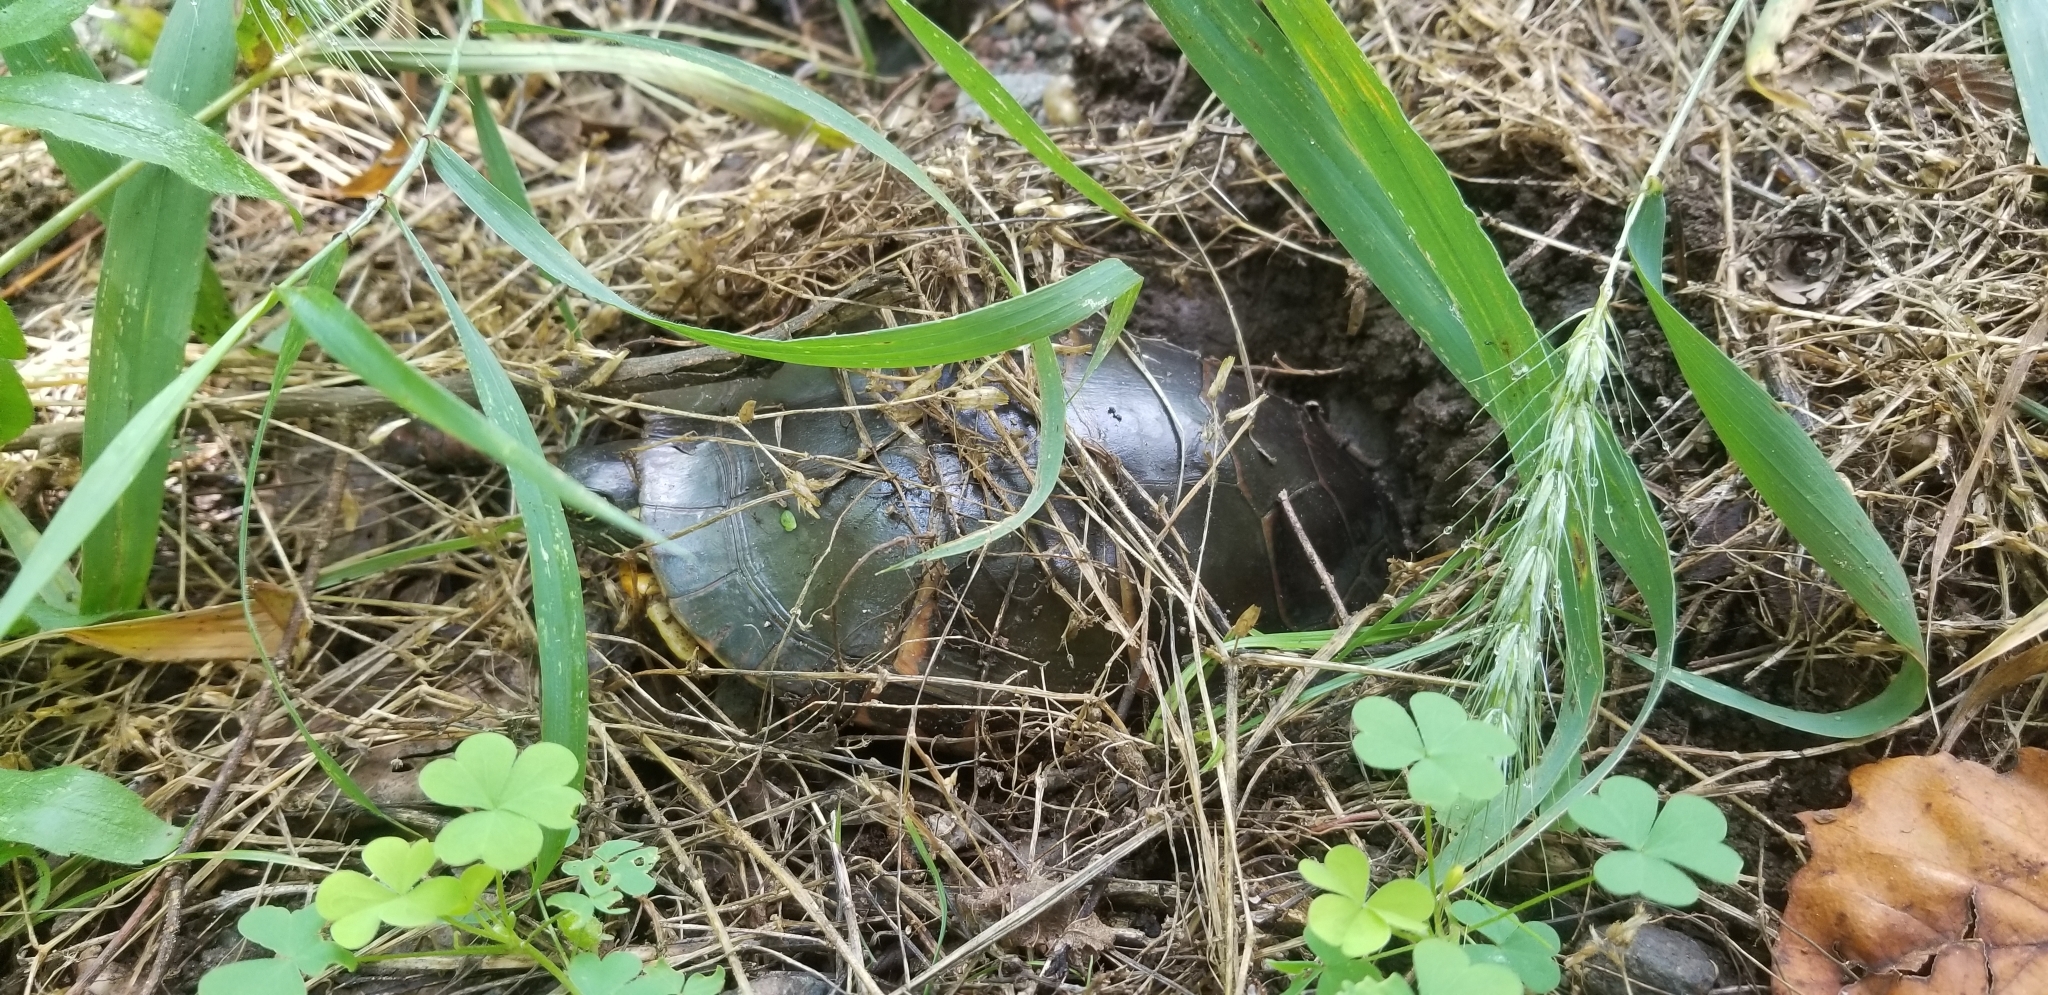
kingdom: Animalia
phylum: Chordata
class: Testudines
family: Emydidae
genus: Chrysemys
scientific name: Chrysemys picta
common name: Painted turtle
